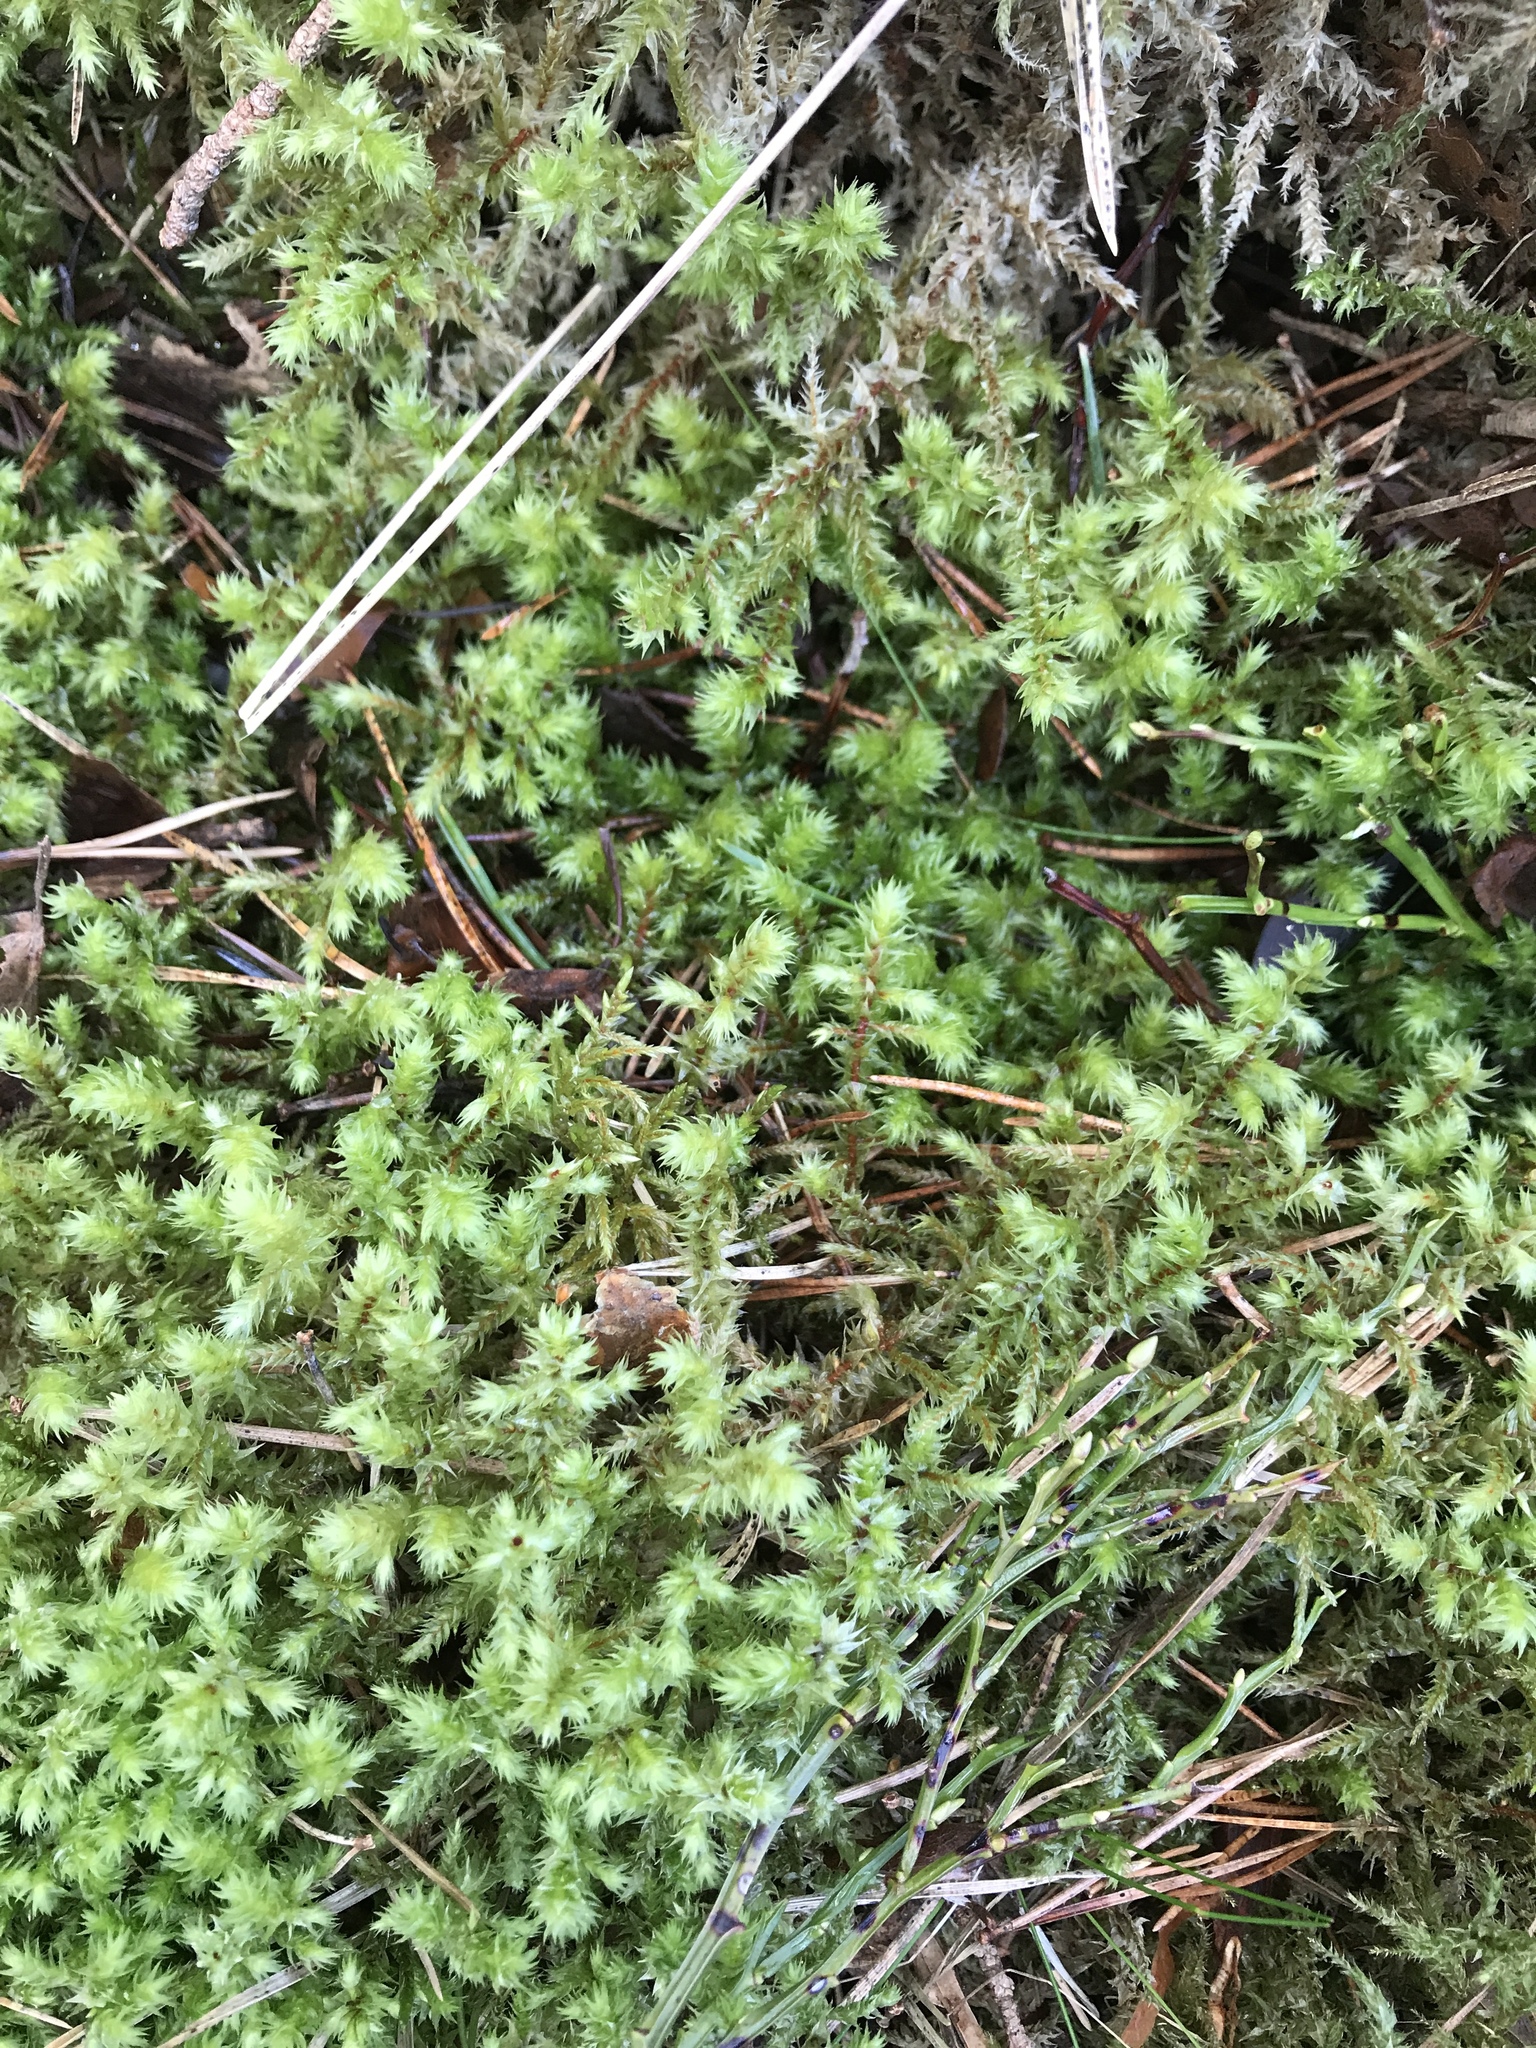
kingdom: Plantae
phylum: Bryophyta
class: Bryopsida
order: Hypnales
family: Hylocomiaceae
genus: Hylocomiadelphus
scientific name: Hylocomiadelphus triquetrus
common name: Rough goose neck moss
